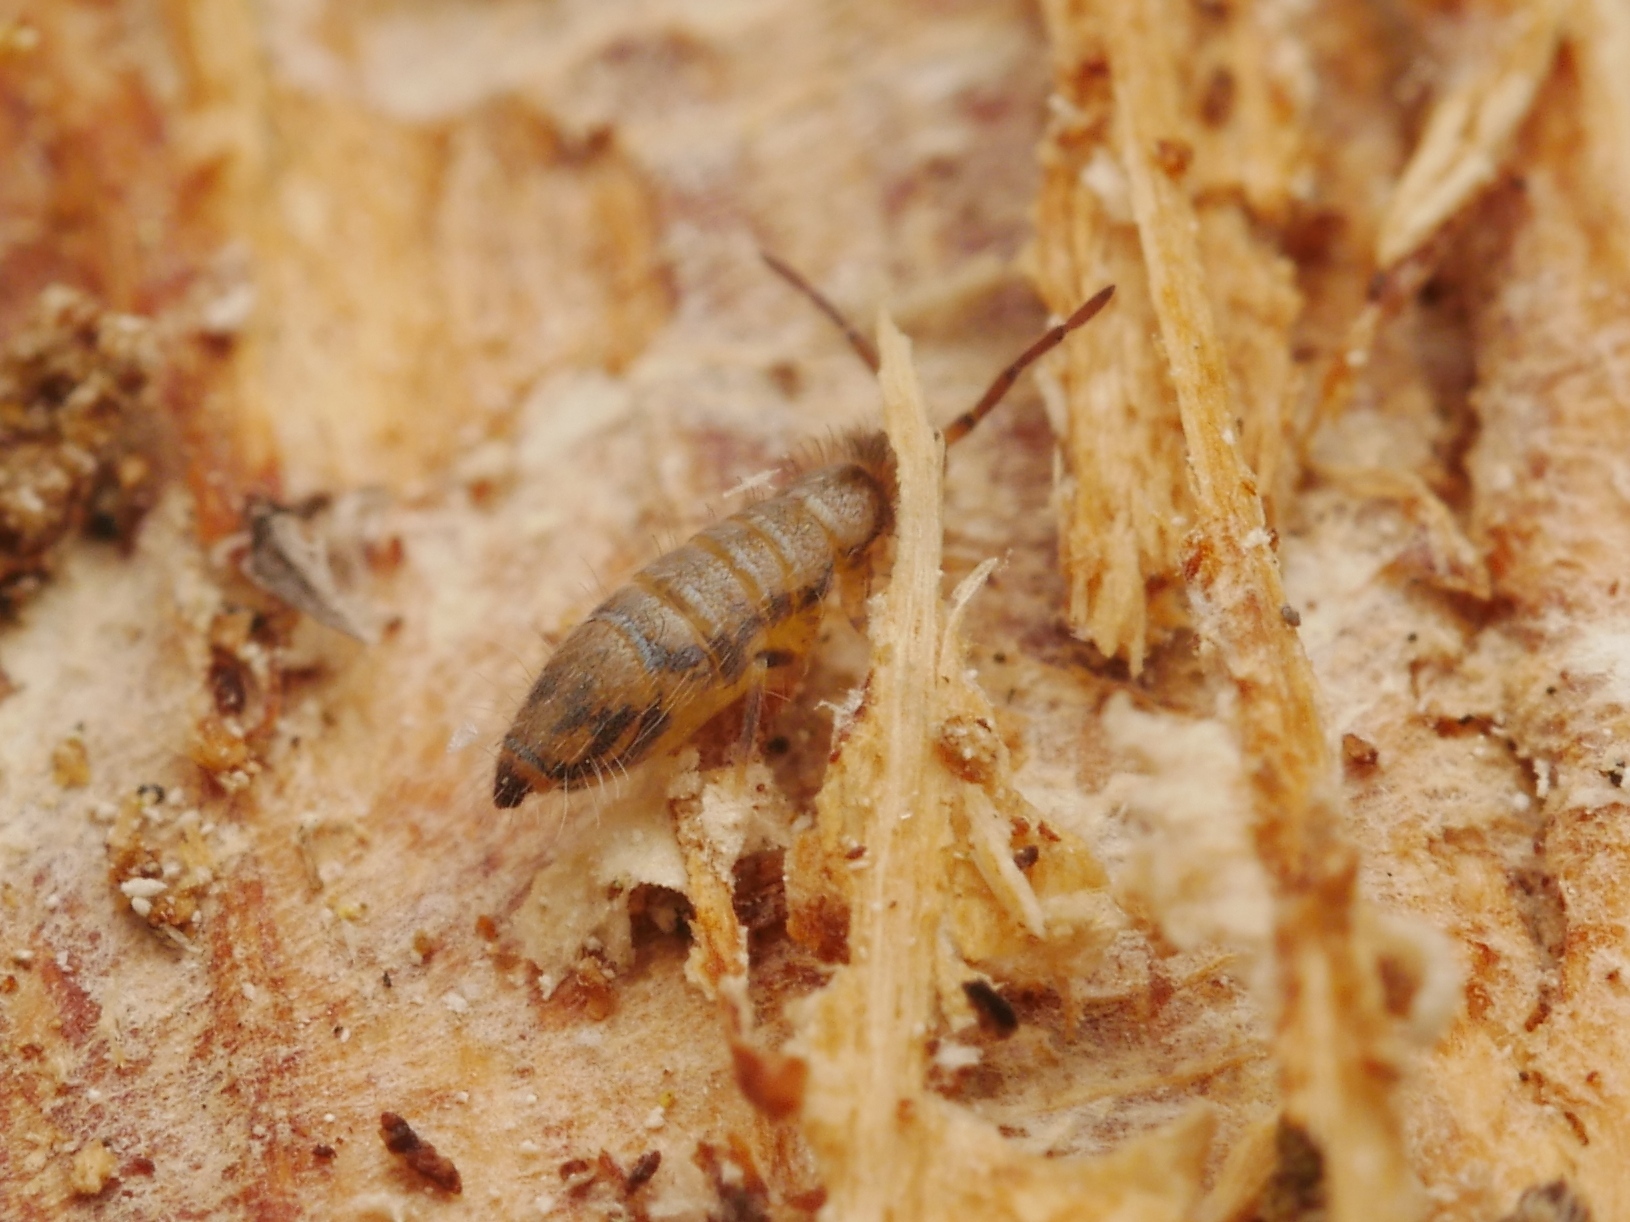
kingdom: Animalia
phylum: Arthropoda
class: Collembola
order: Entomobryomorpha
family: Entomobryidae
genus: Willowsia
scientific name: Willowsia nigromaculata
